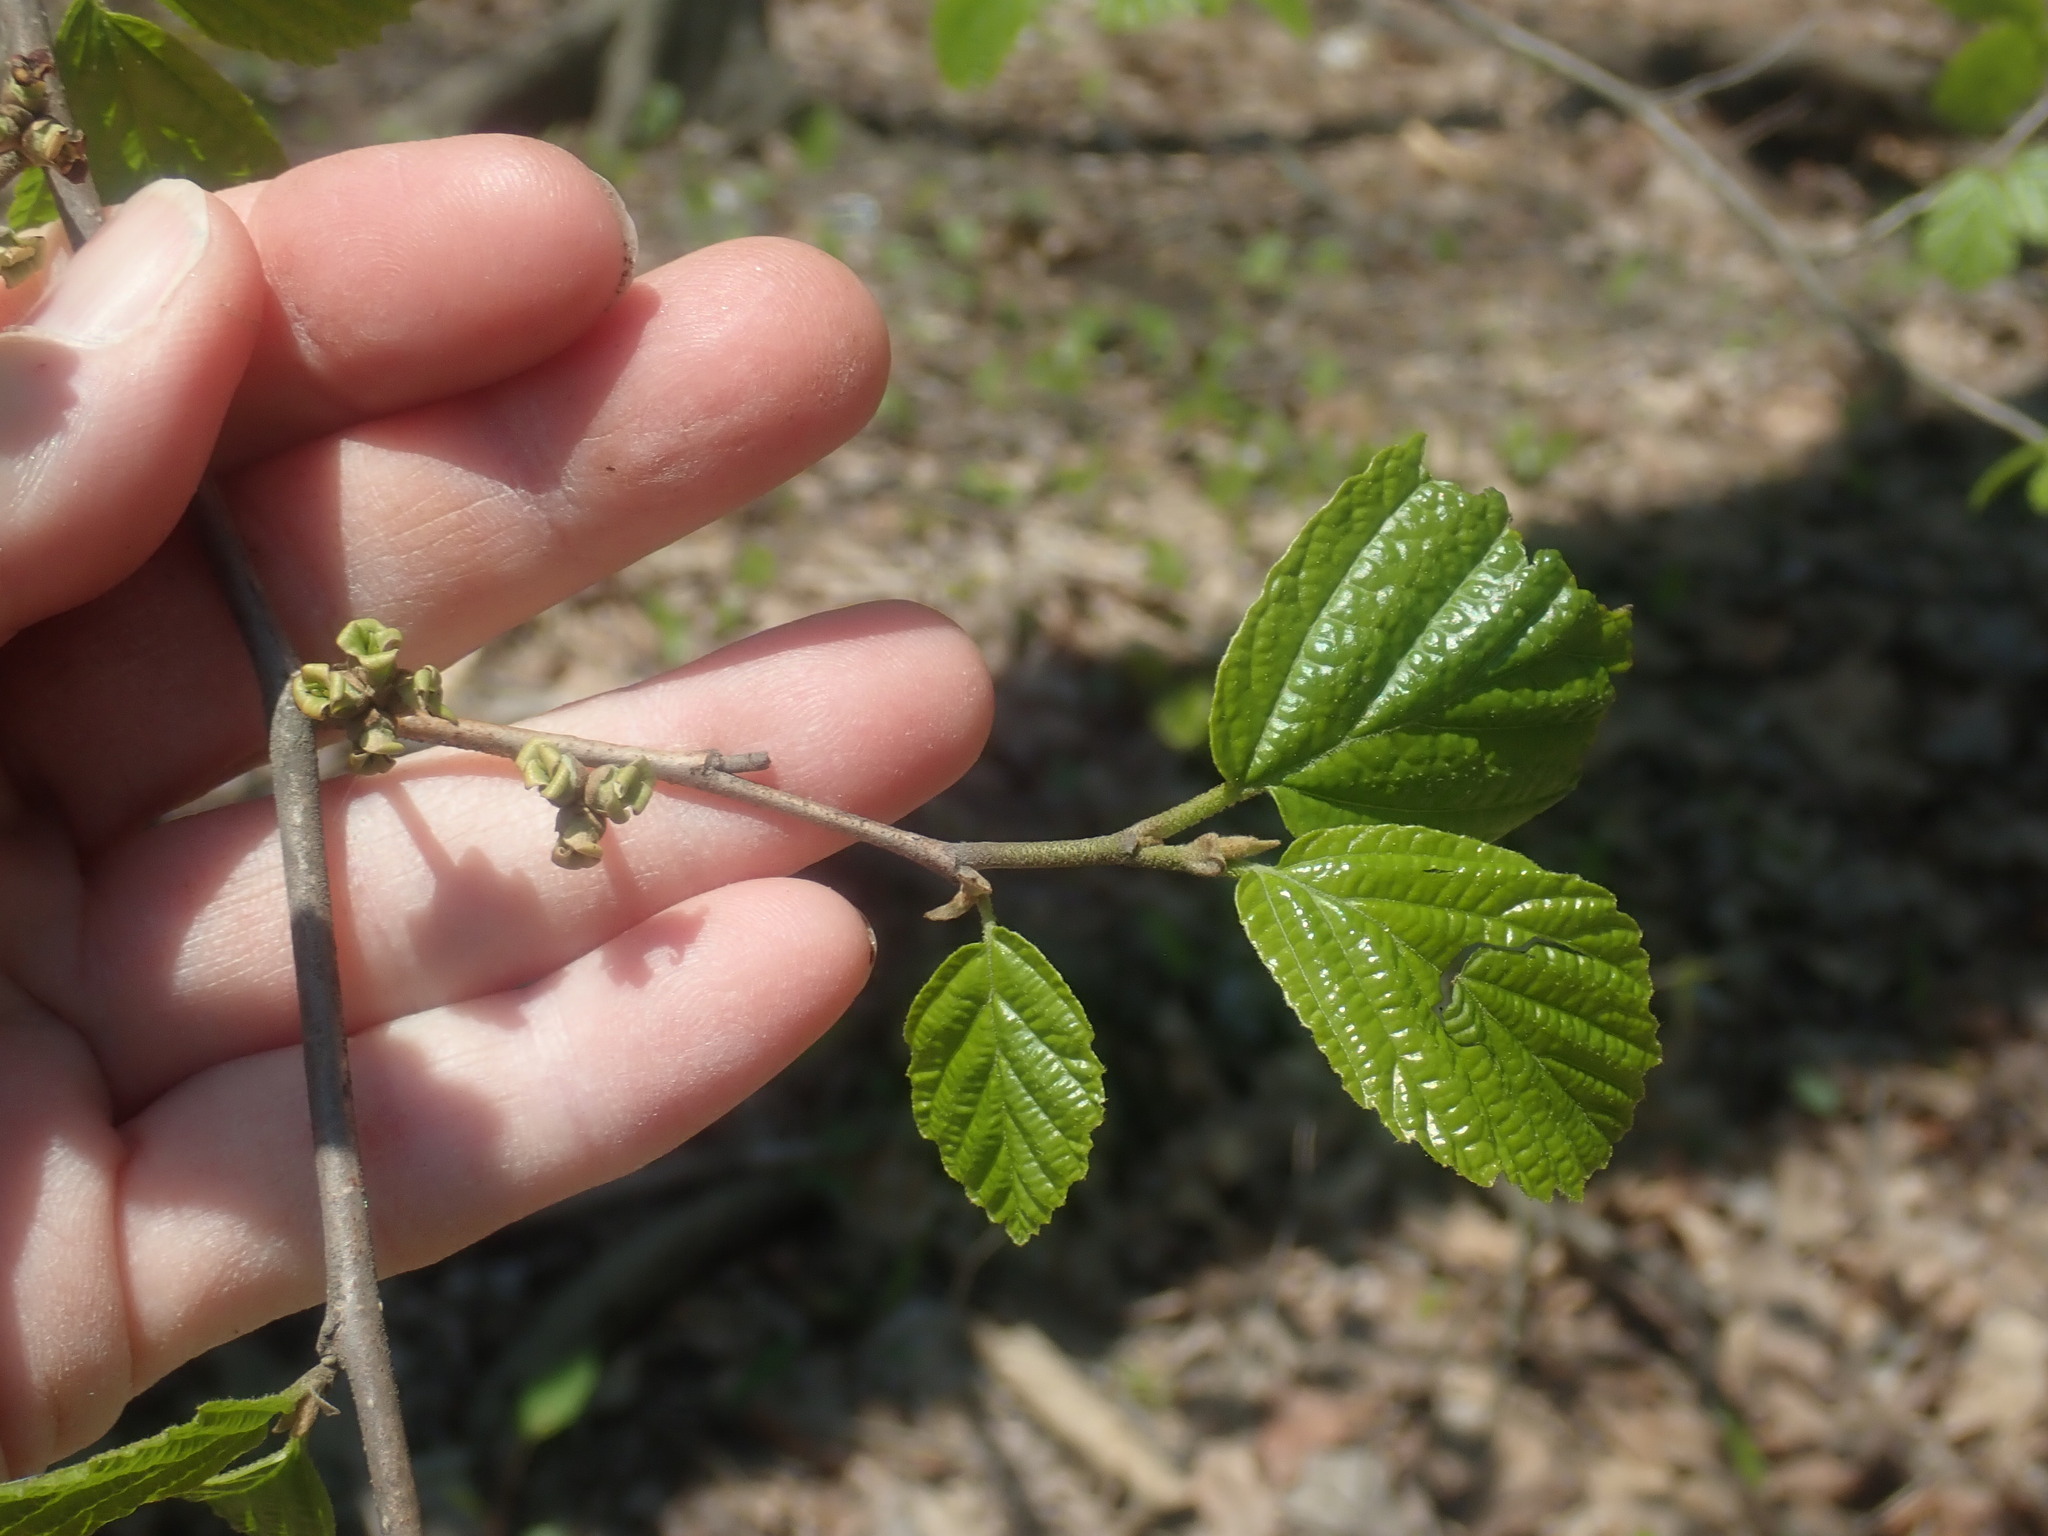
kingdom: Plantae
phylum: Tracheophyta
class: Magnoliopsida
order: Saxifragales
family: Hamamelidaceae
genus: Hamamelis
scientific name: Hamamelis virginiana
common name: Witch-hazel
